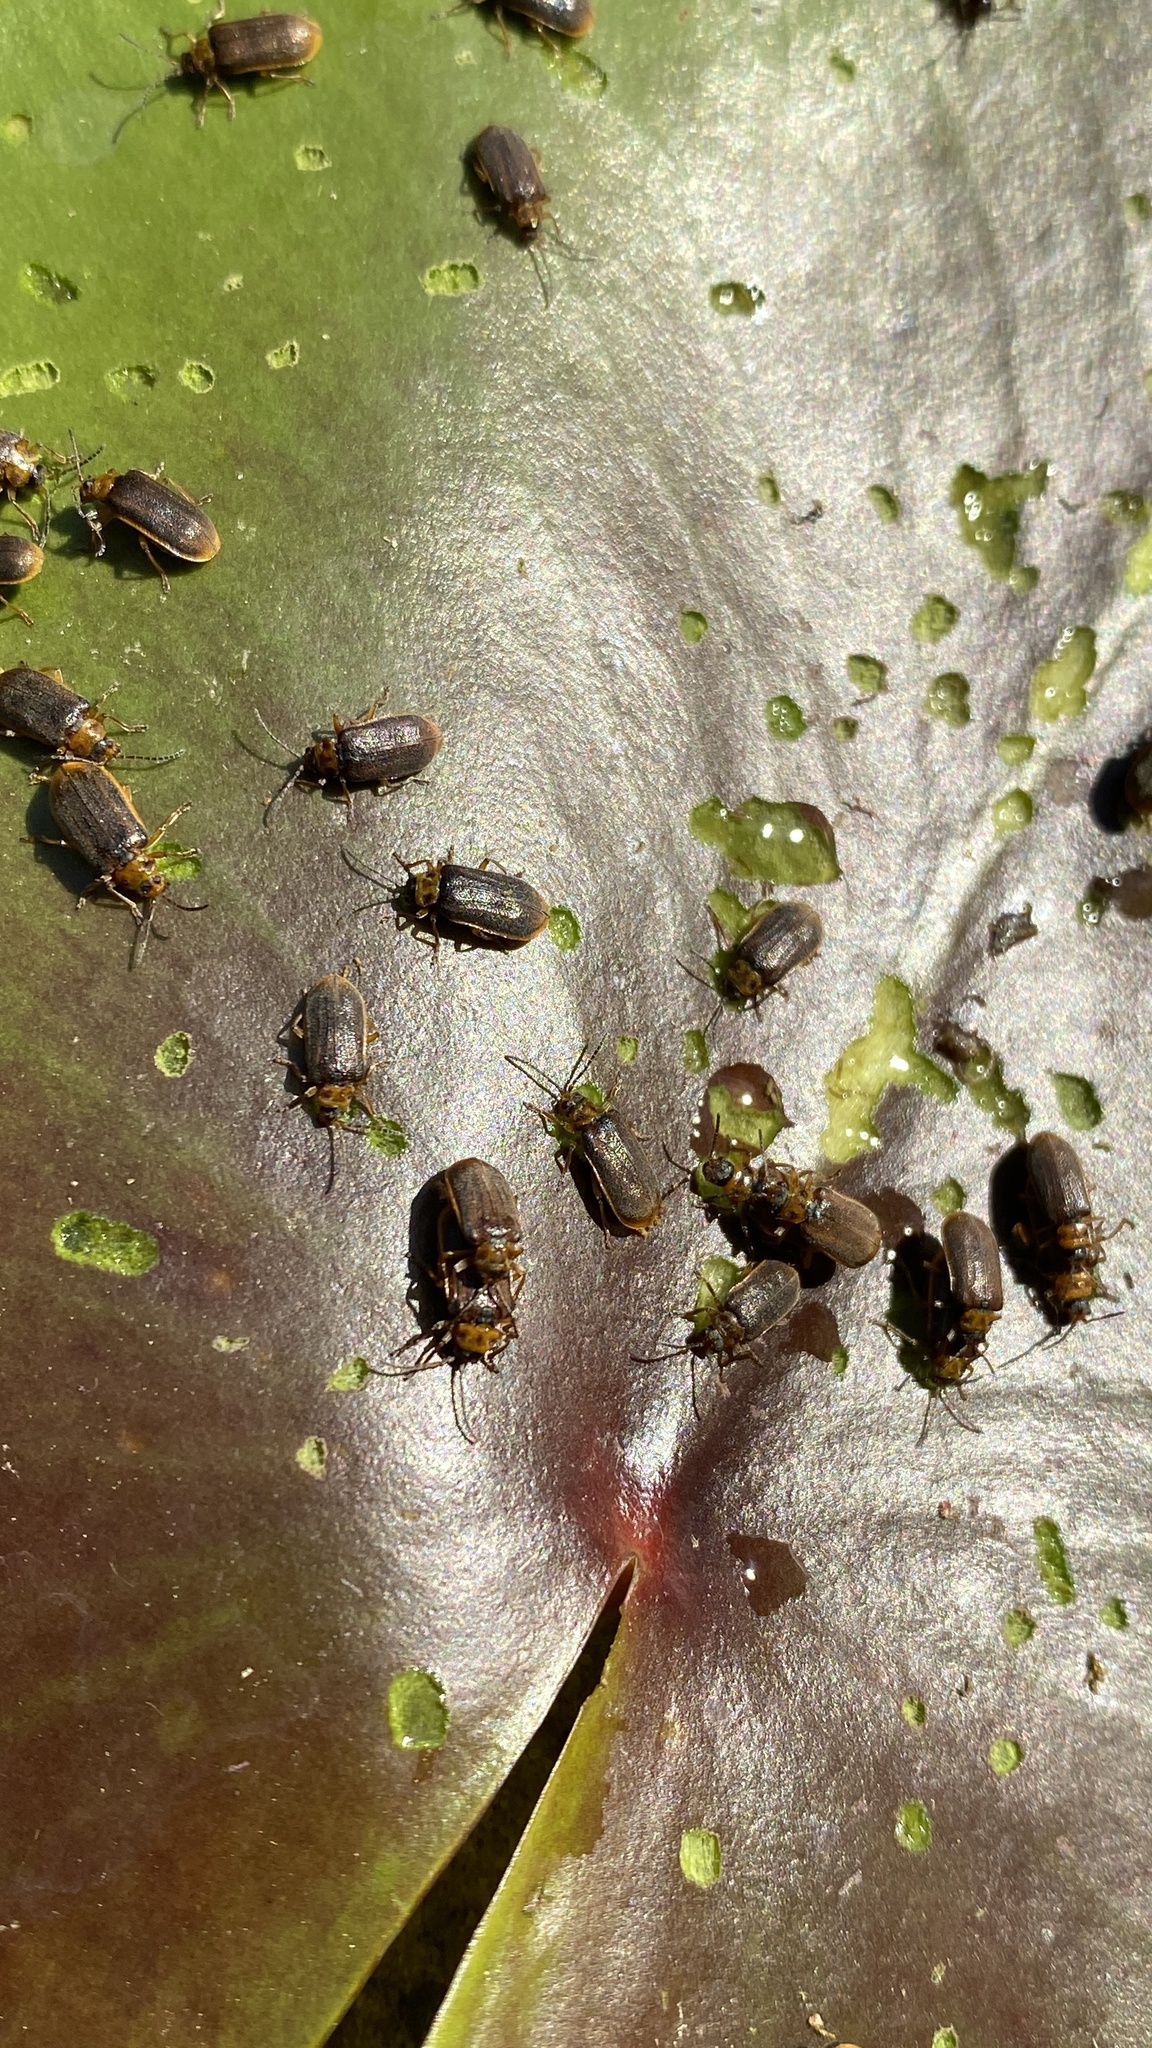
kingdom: Animalia
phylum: Arthropoda
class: Insecta
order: Coleoptera
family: Chrysomelidae
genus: Galerucella
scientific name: Galerucella nymphaeae
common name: Leaf beetle
